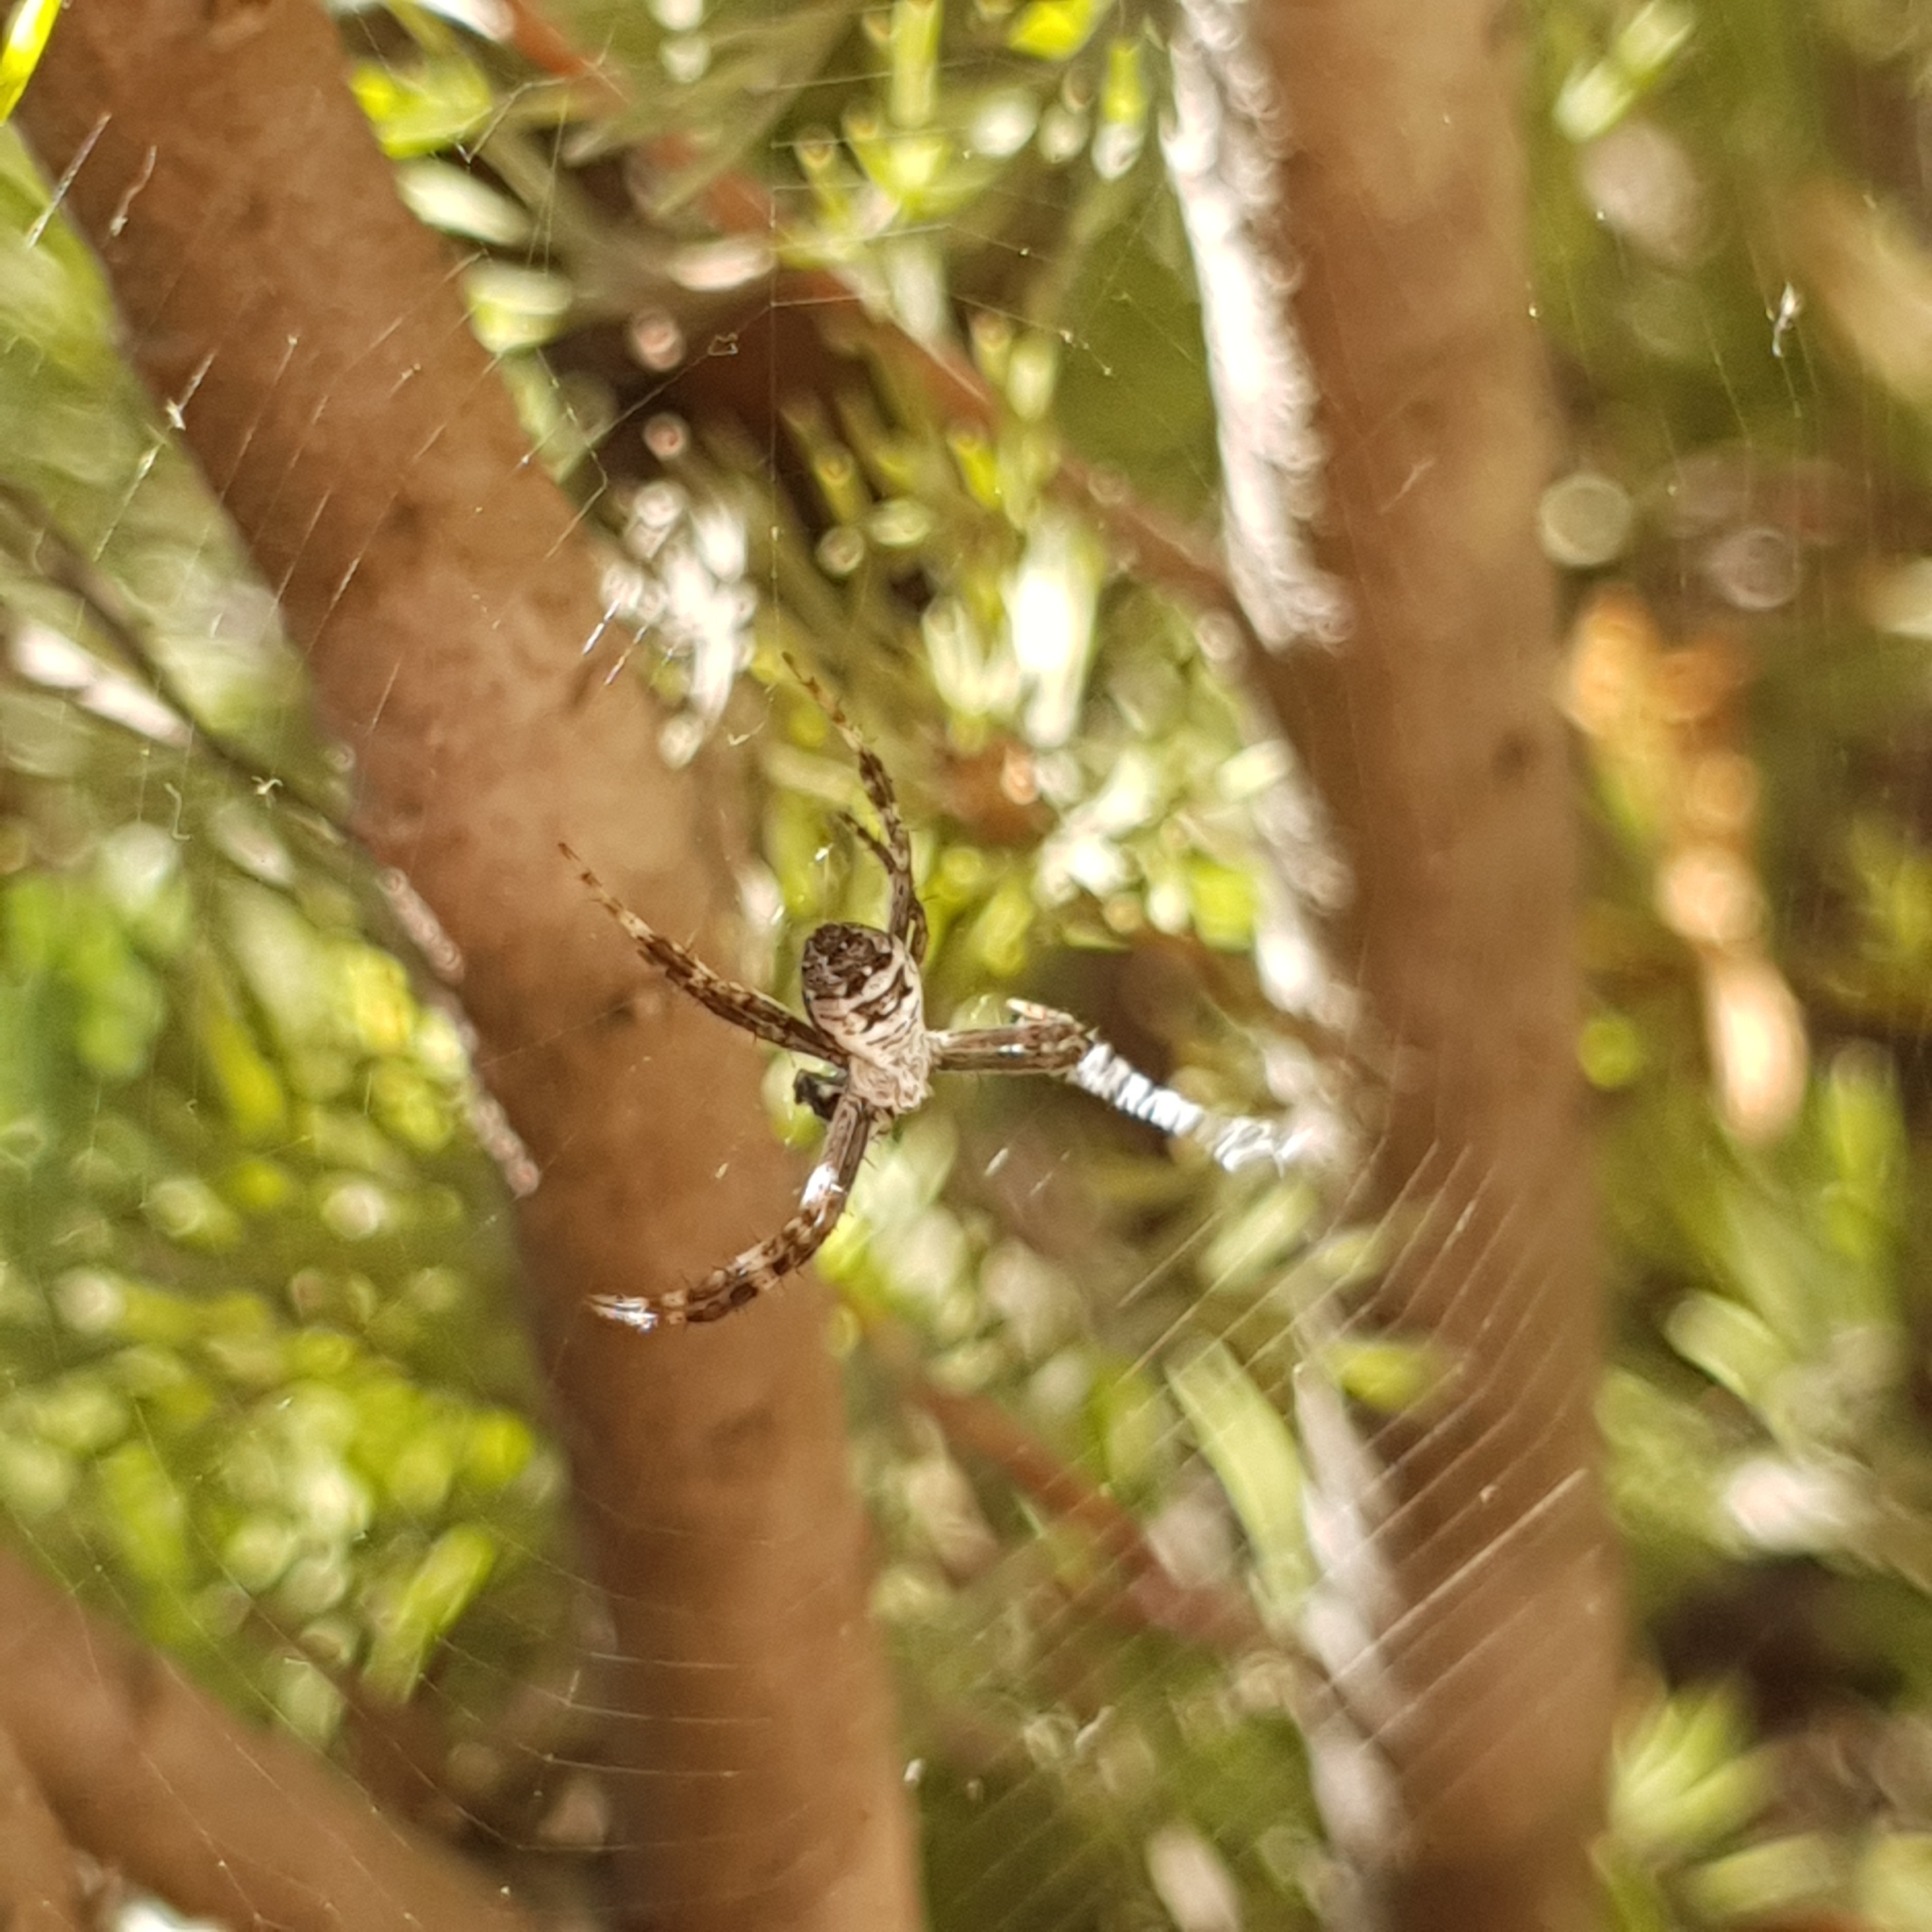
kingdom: Animalia
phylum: Arthropoda
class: Arachnida
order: Araneae
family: Araneidae
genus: Argiope
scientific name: Argiope keyserlingi
